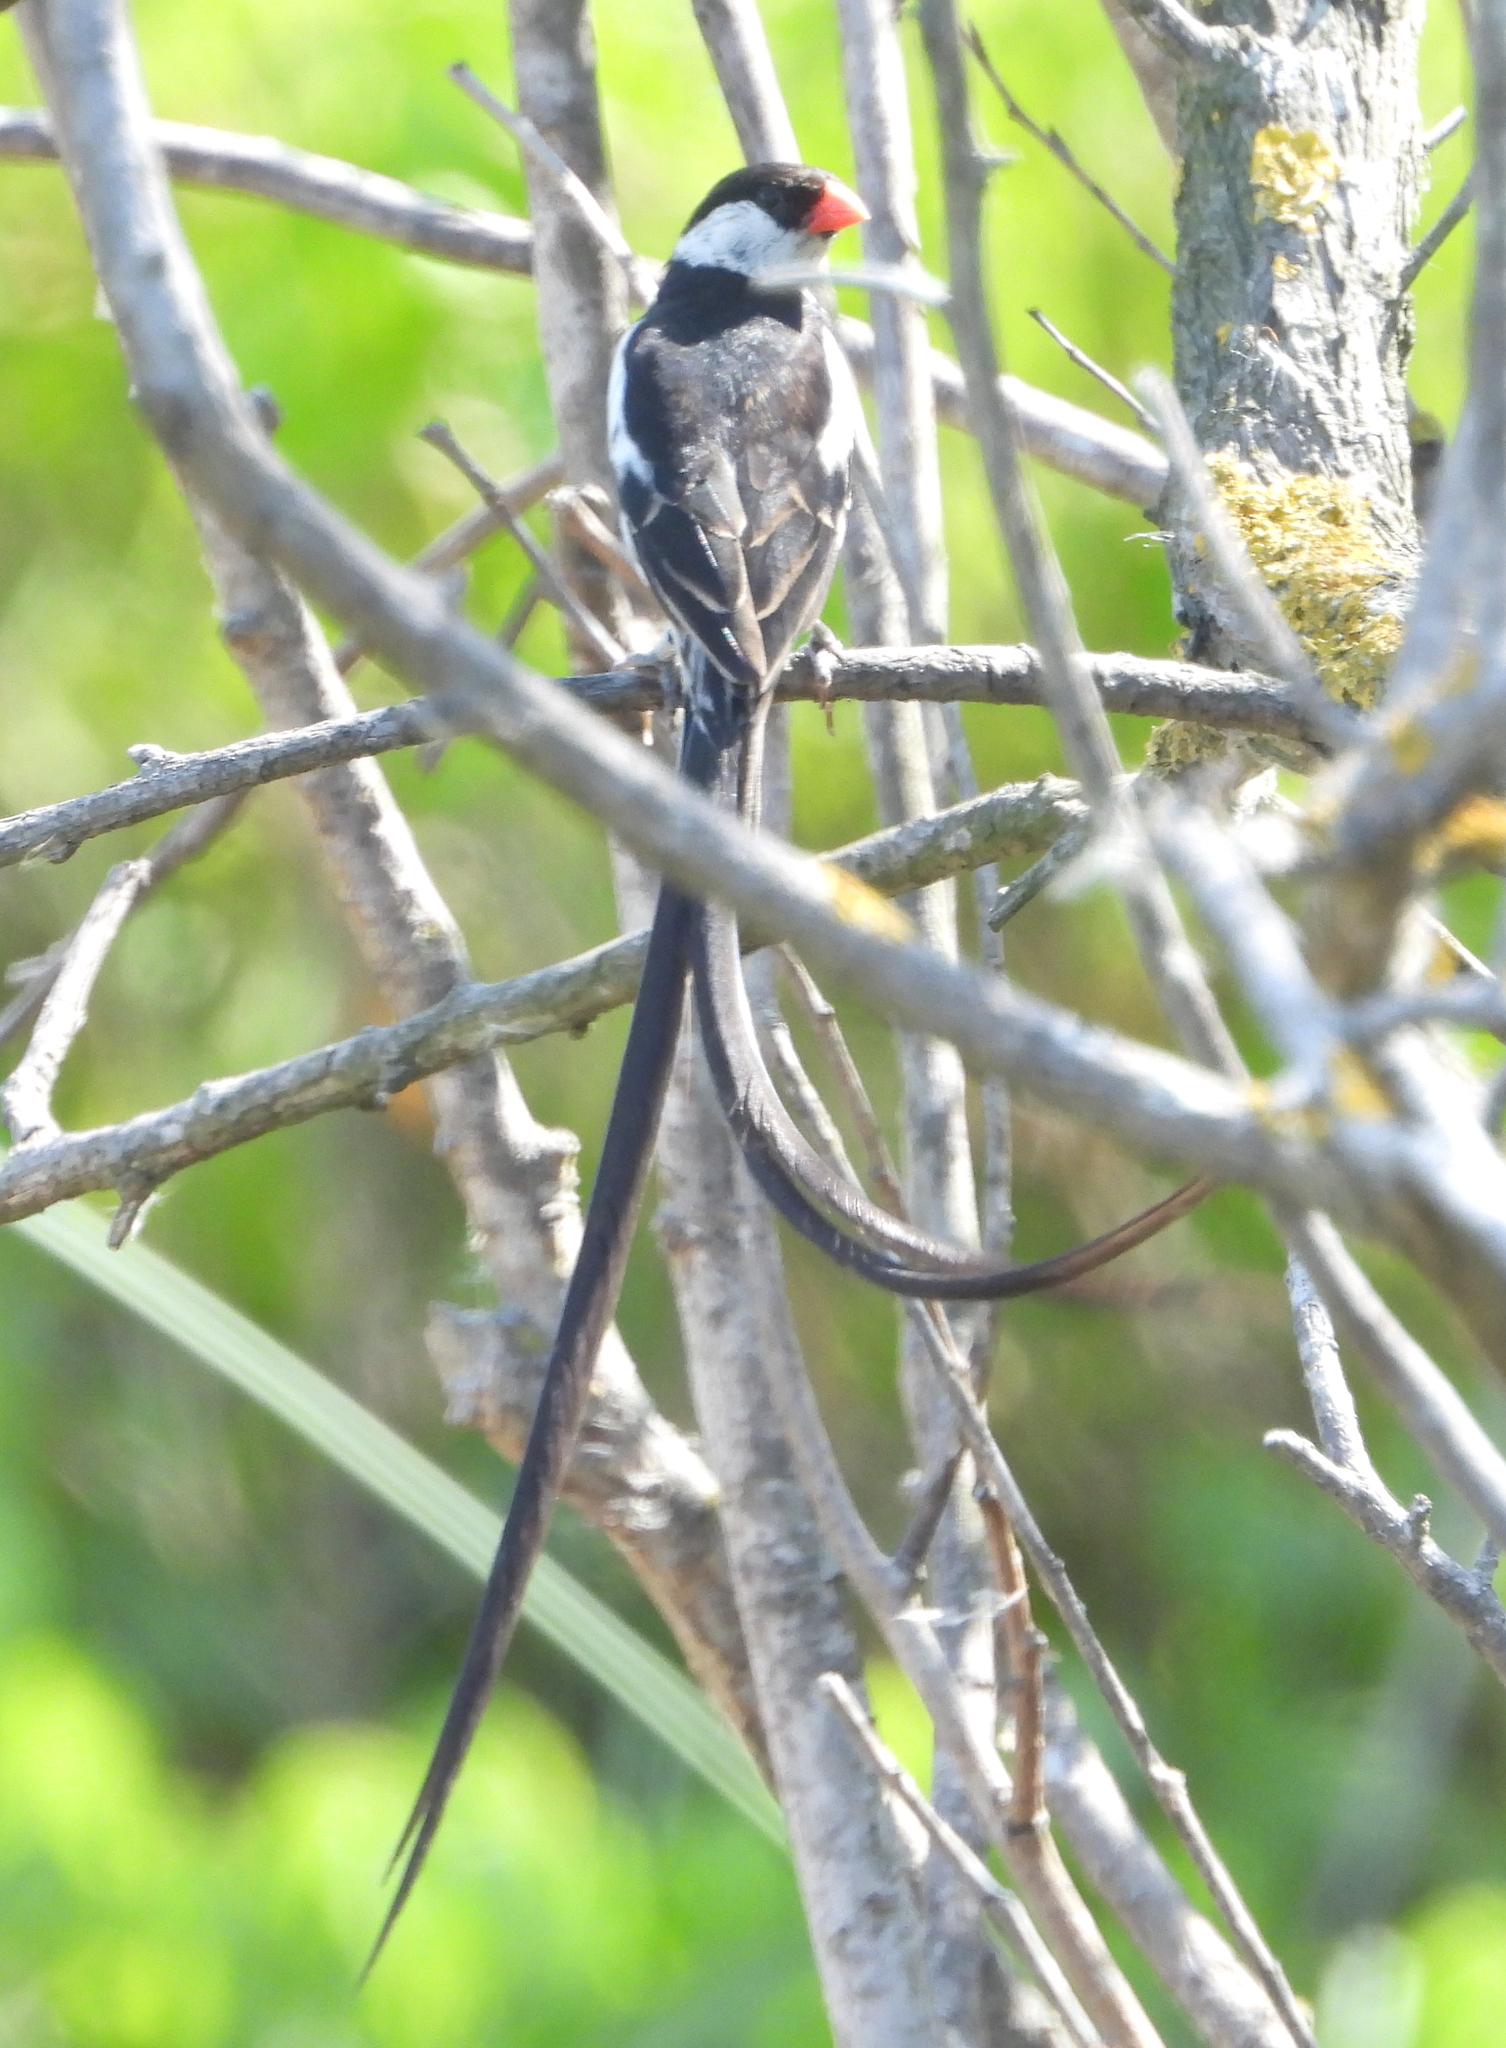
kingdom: Animalia
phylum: Chordata
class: Aves
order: Passeriformes
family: Viduidae
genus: Vidua
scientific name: Vidua macroura
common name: Pin-tailed whydah
